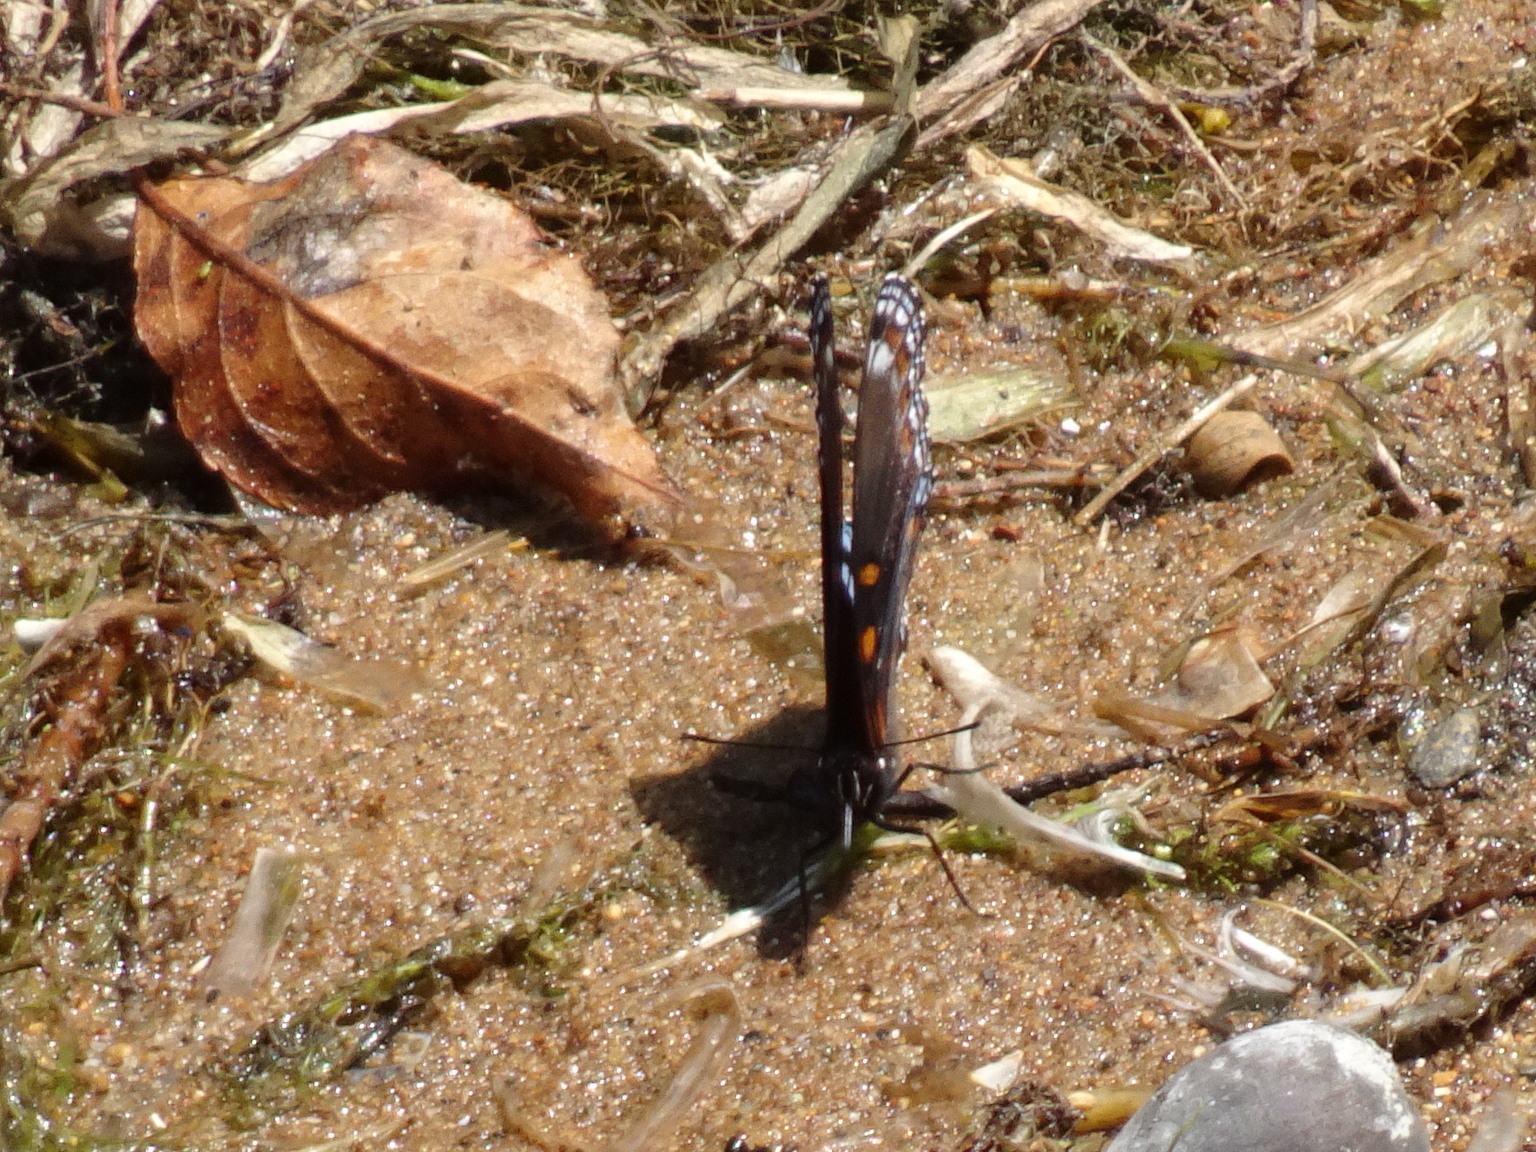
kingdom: Animalia
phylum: Arthropoda
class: Insecta
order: Lepidoptera
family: Nymphalidae
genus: Limenitis
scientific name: Limenitis arthemis
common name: Red-spotted admiral
